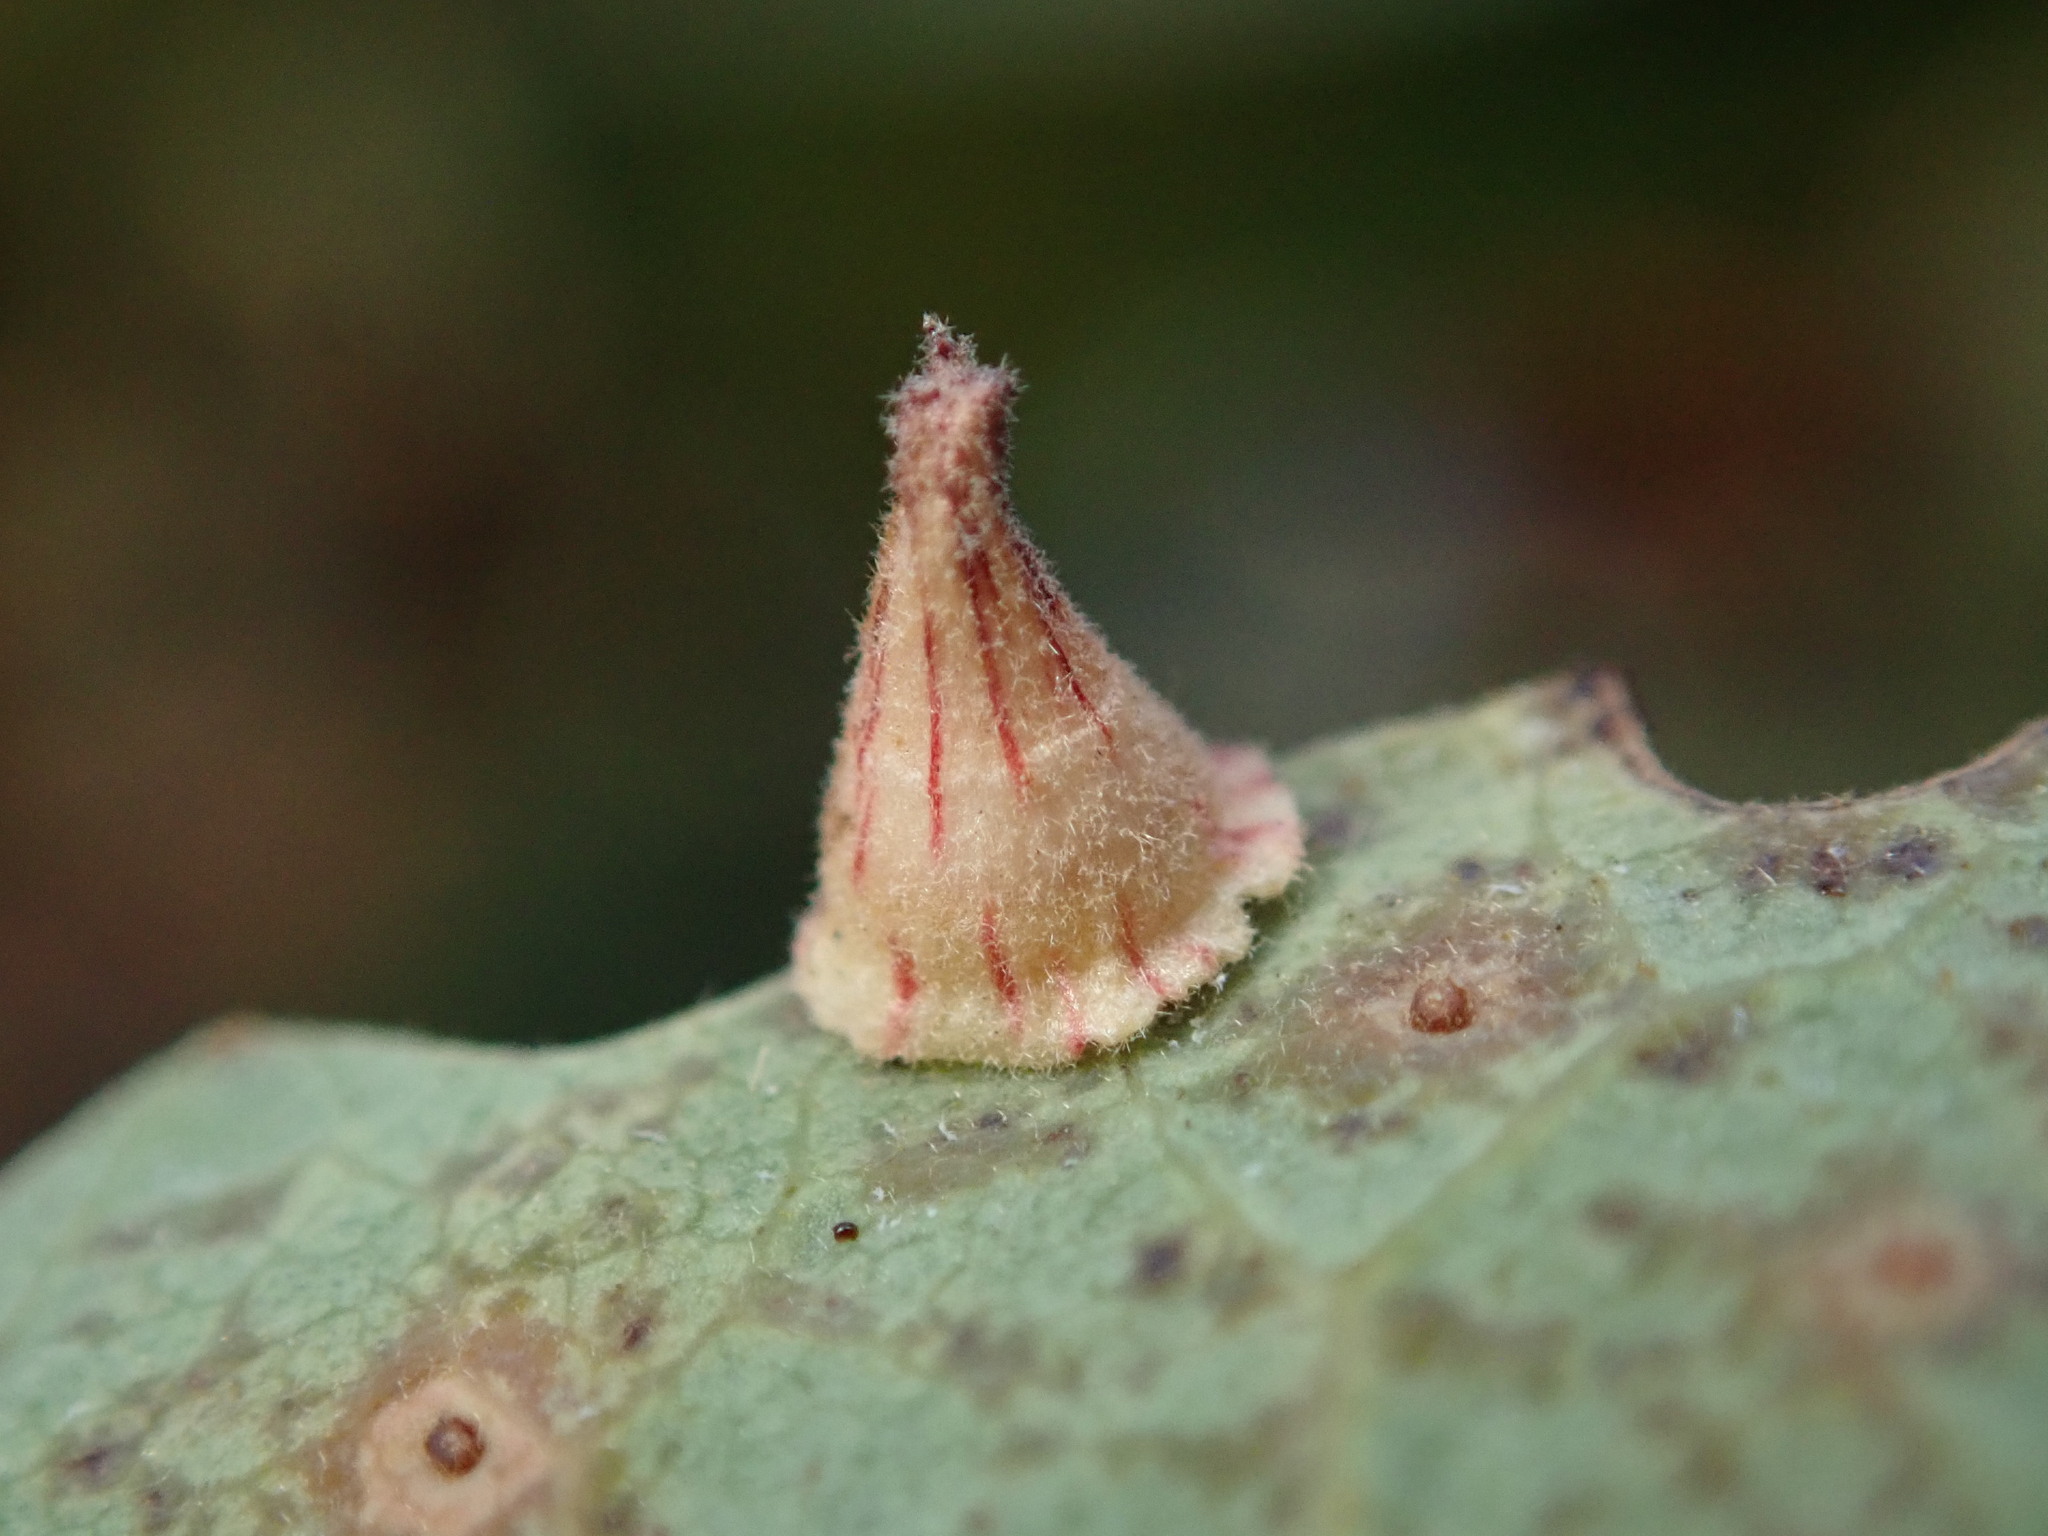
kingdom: Animalia
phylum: Arthropoda
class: Insecta
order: Hymenoptera
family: Cynipidae
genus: Andricus
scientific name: Andricus
